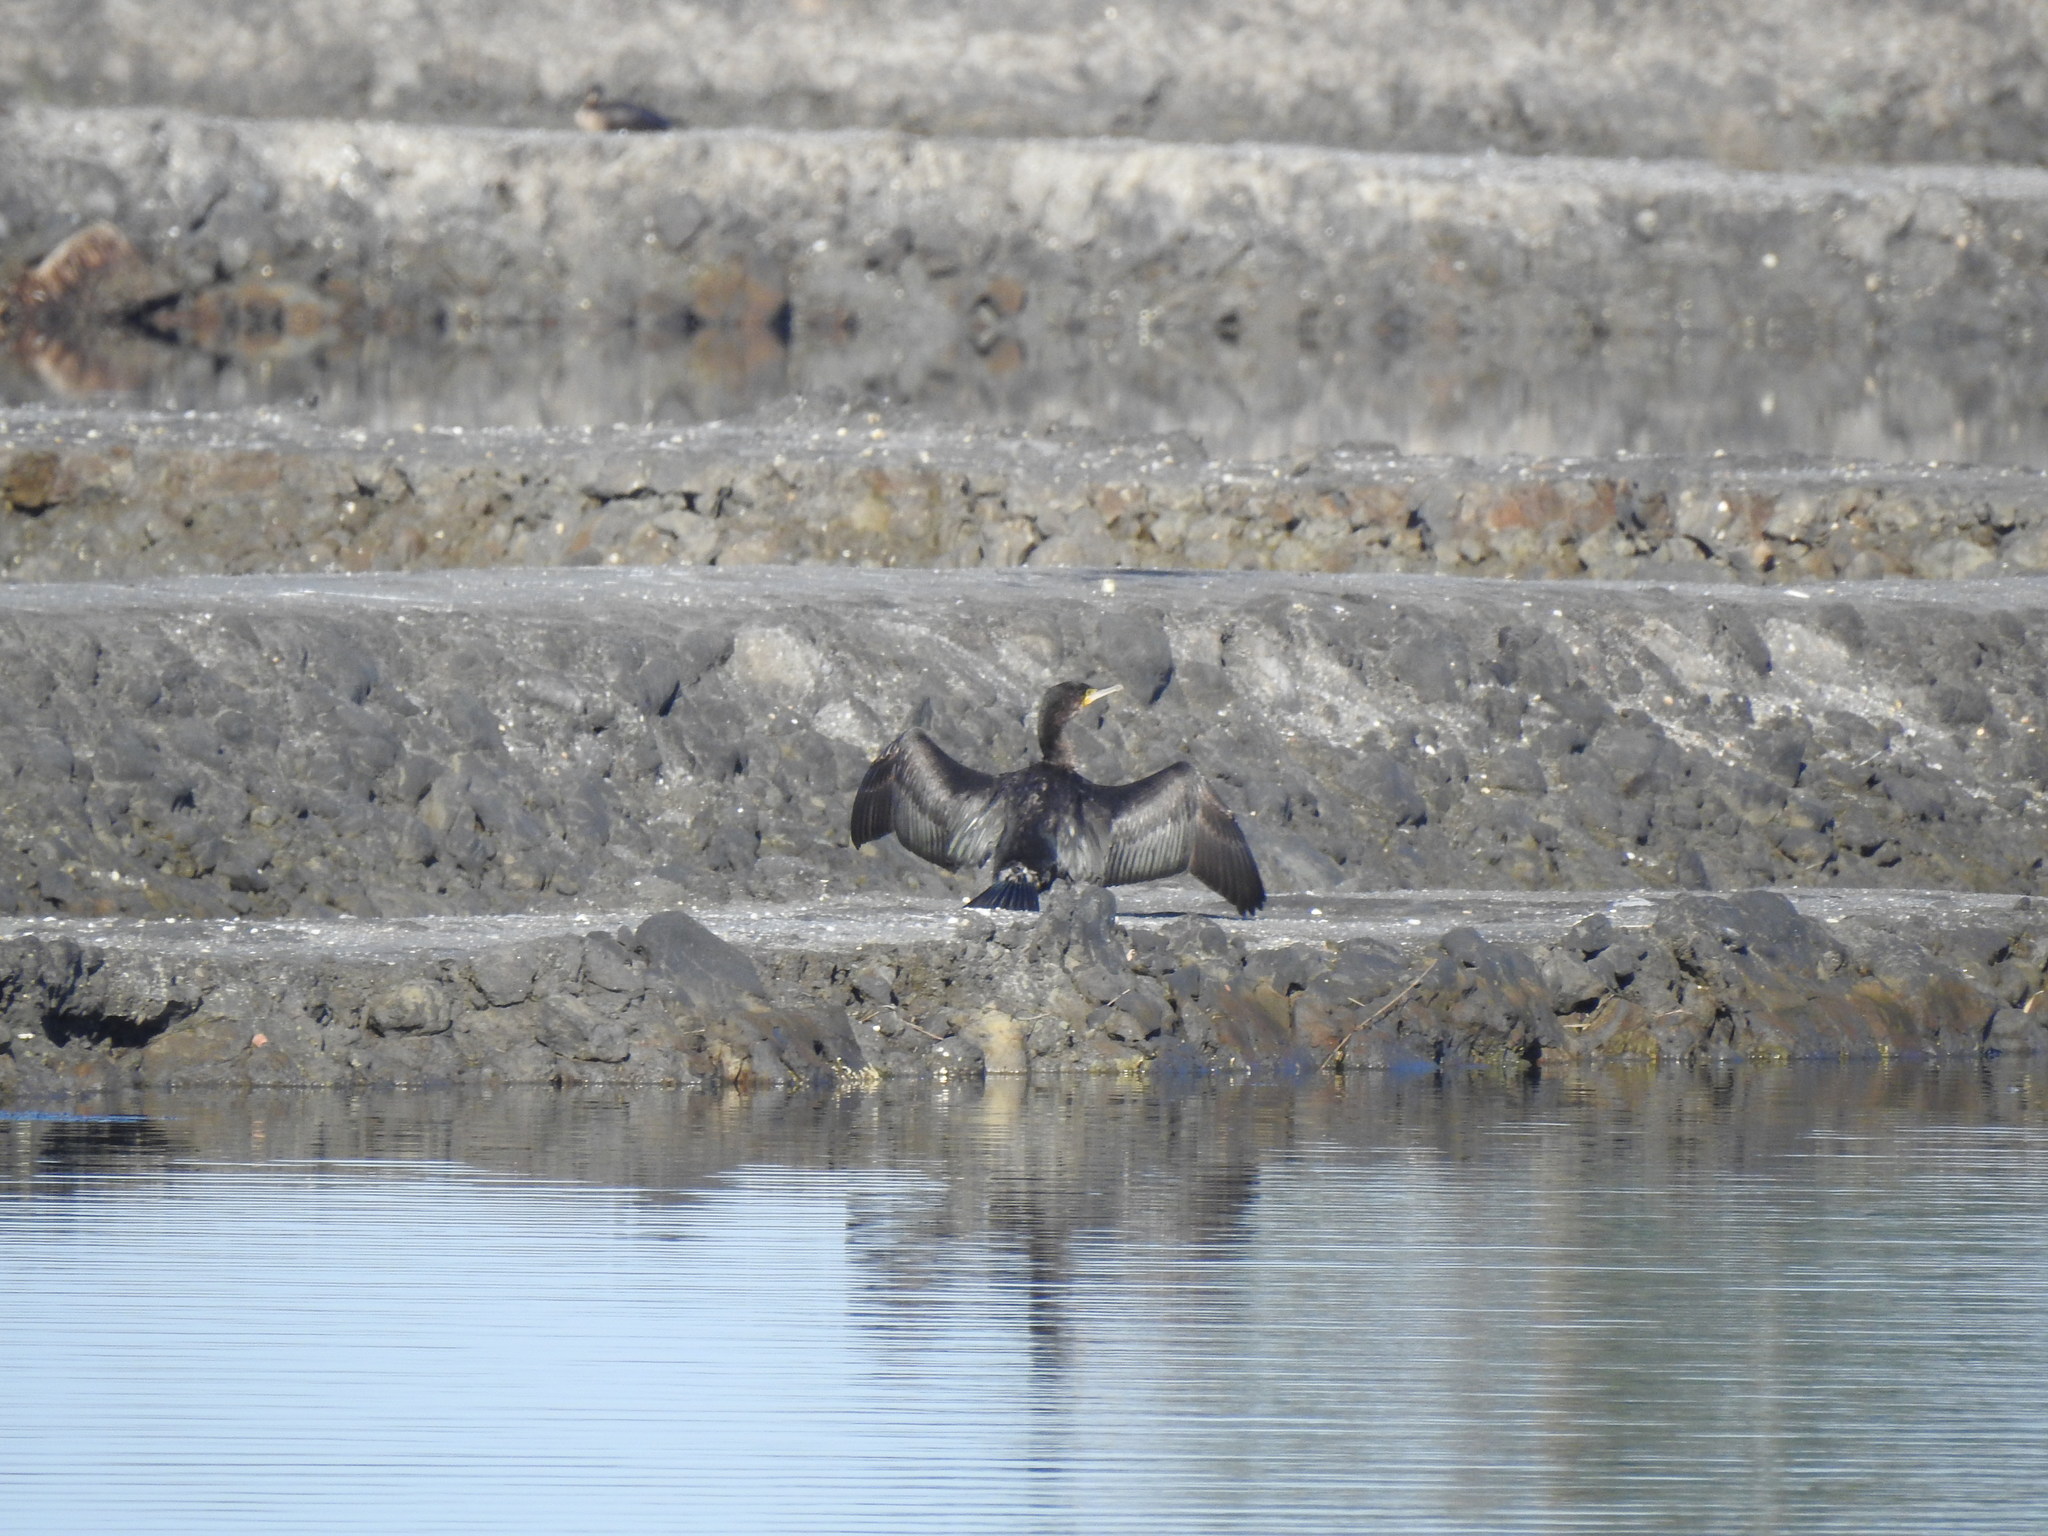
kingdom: Animalia
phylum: Chordata
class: Aves
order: Suliformes
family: Phalacrocoracidae
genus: Phalacrocorax
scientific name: Phalacrocorax carbo
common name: Great cormorant
